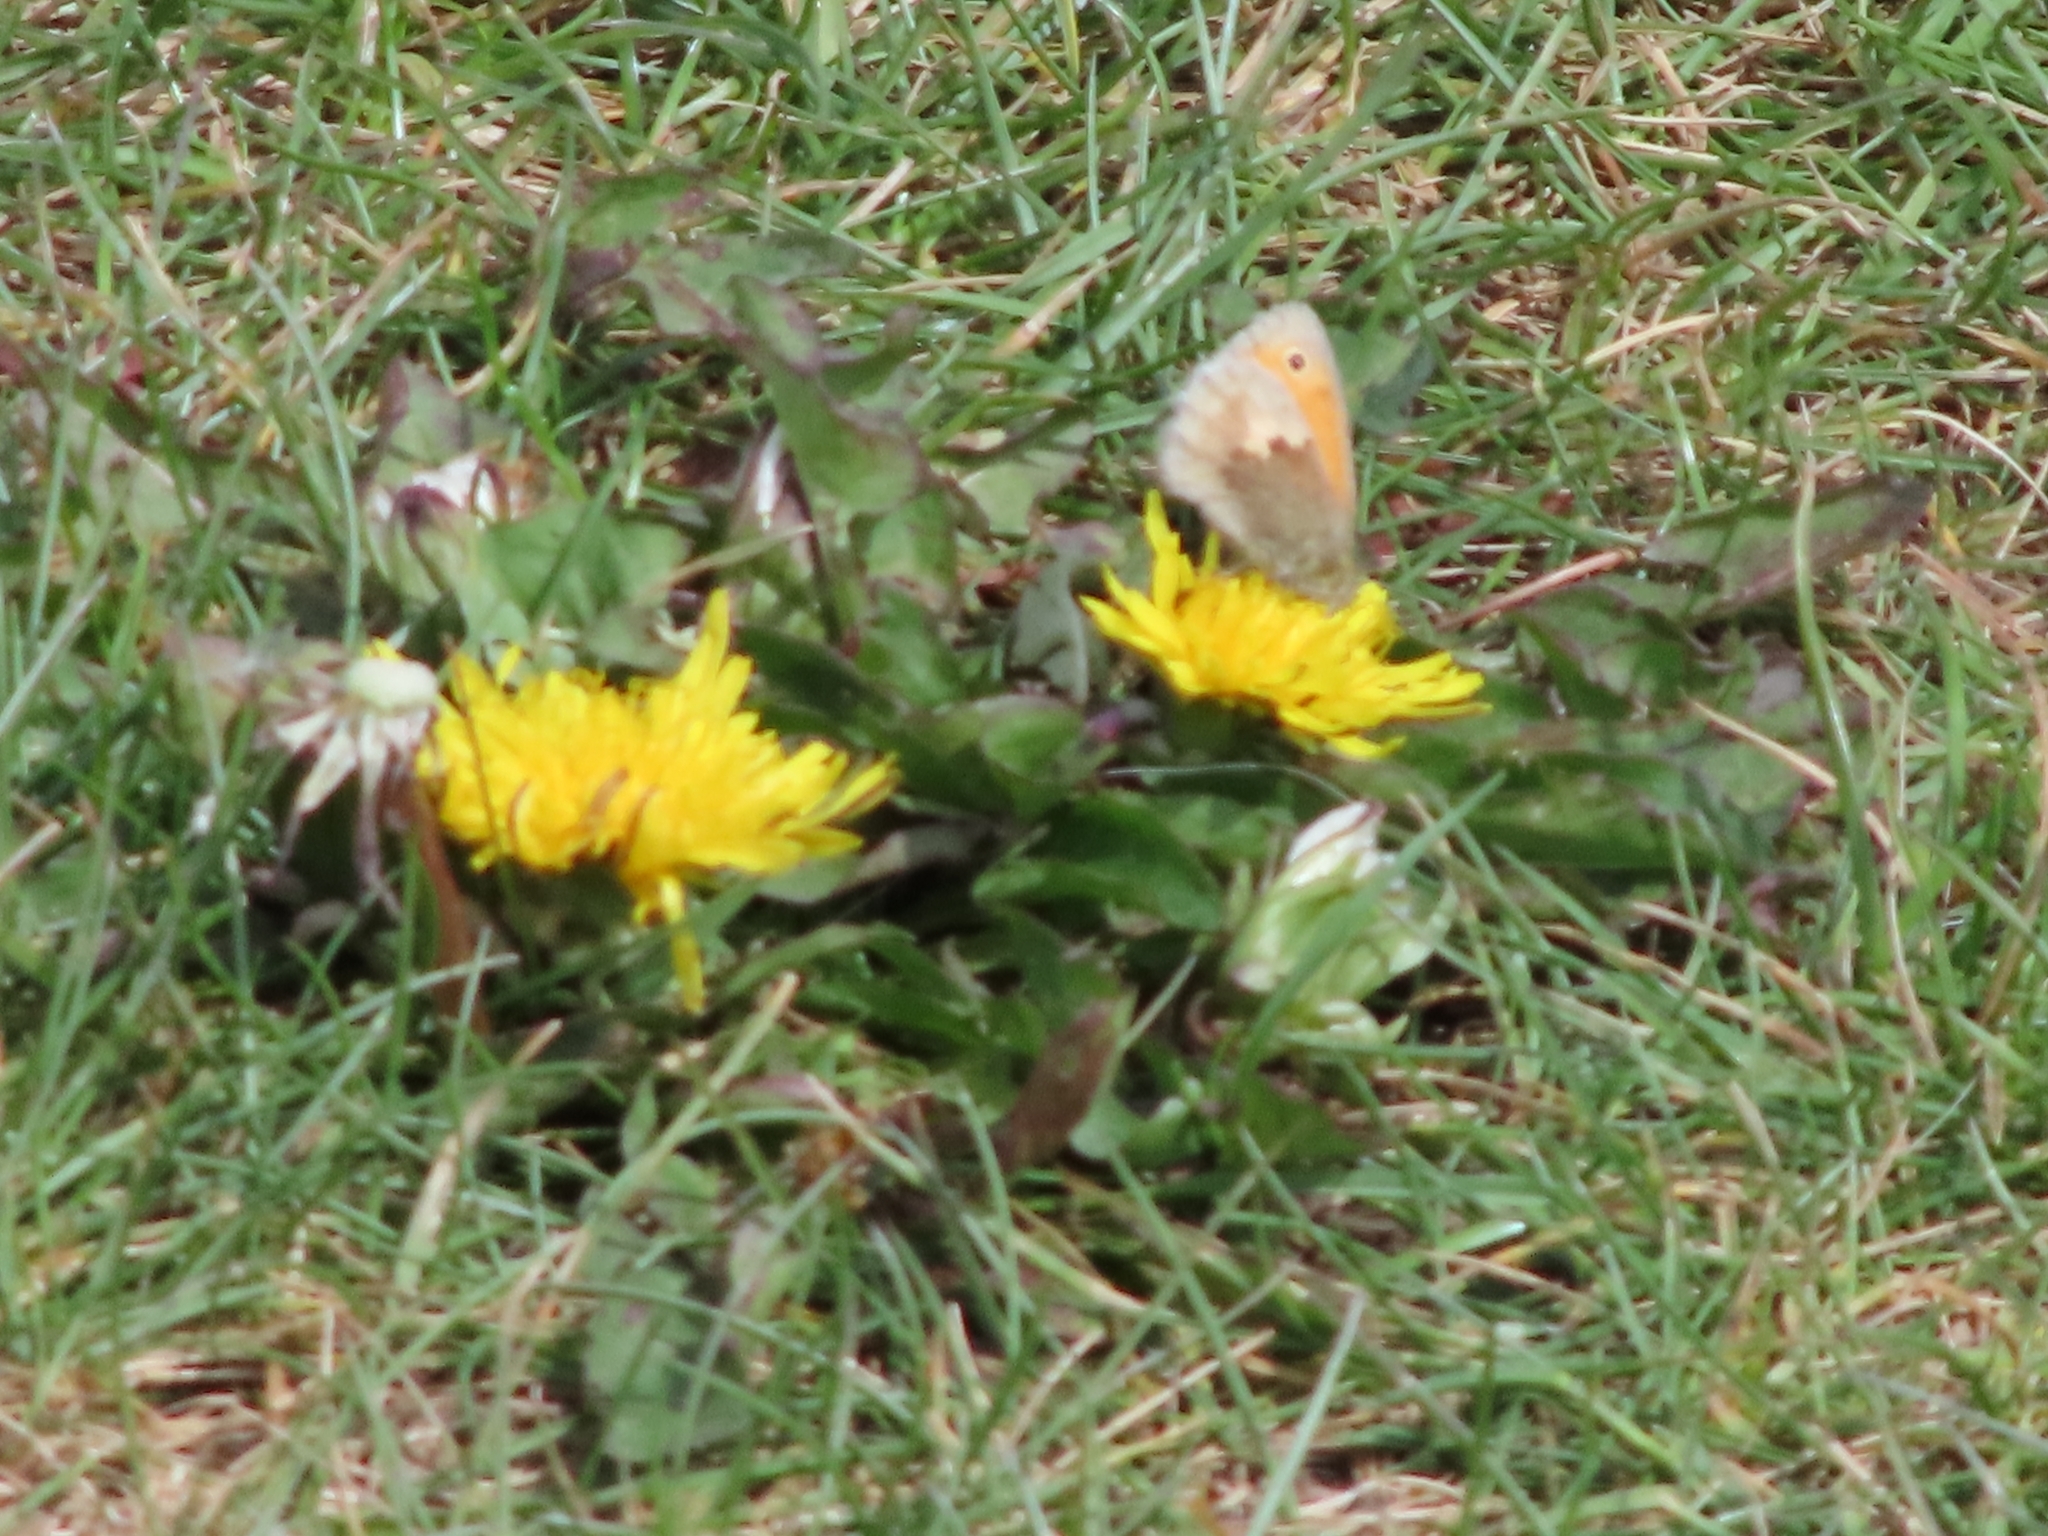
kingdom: Animalia
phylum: Arthropoda
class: Insecta
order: Lepidoptera
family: Nymphalidae
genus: Coenonympha
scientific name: Coenonympha pamphilus
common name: Small heath
